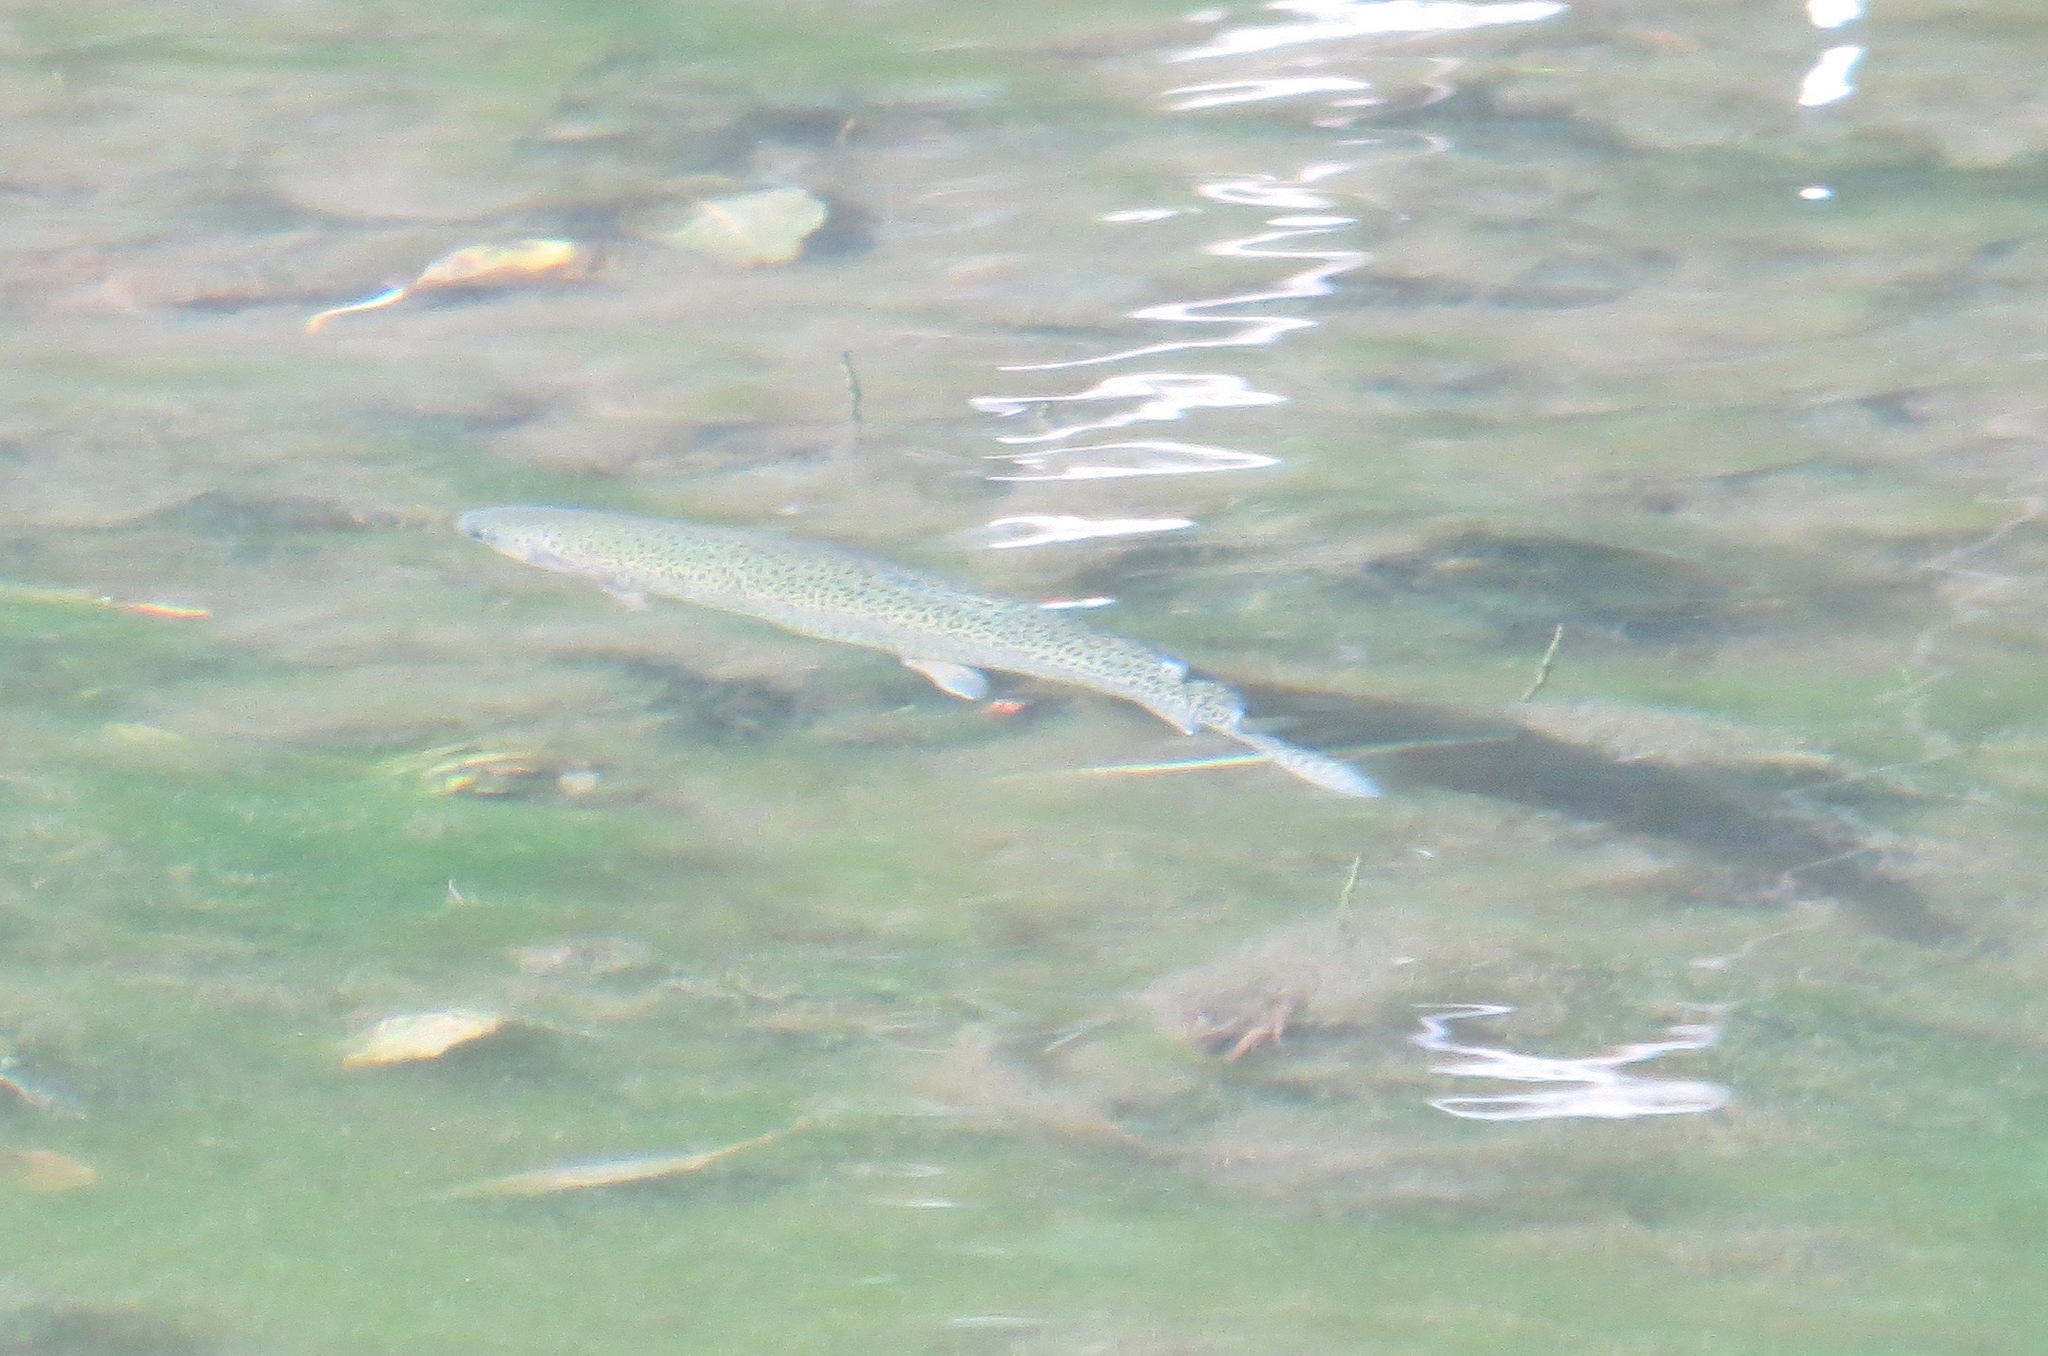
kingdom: Animalia
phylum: Chordata
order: Salmoniformes
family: Salmonidae
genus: Oncorhynchus
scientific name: Oncorhynchus mykiss
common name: Rainbow trout
